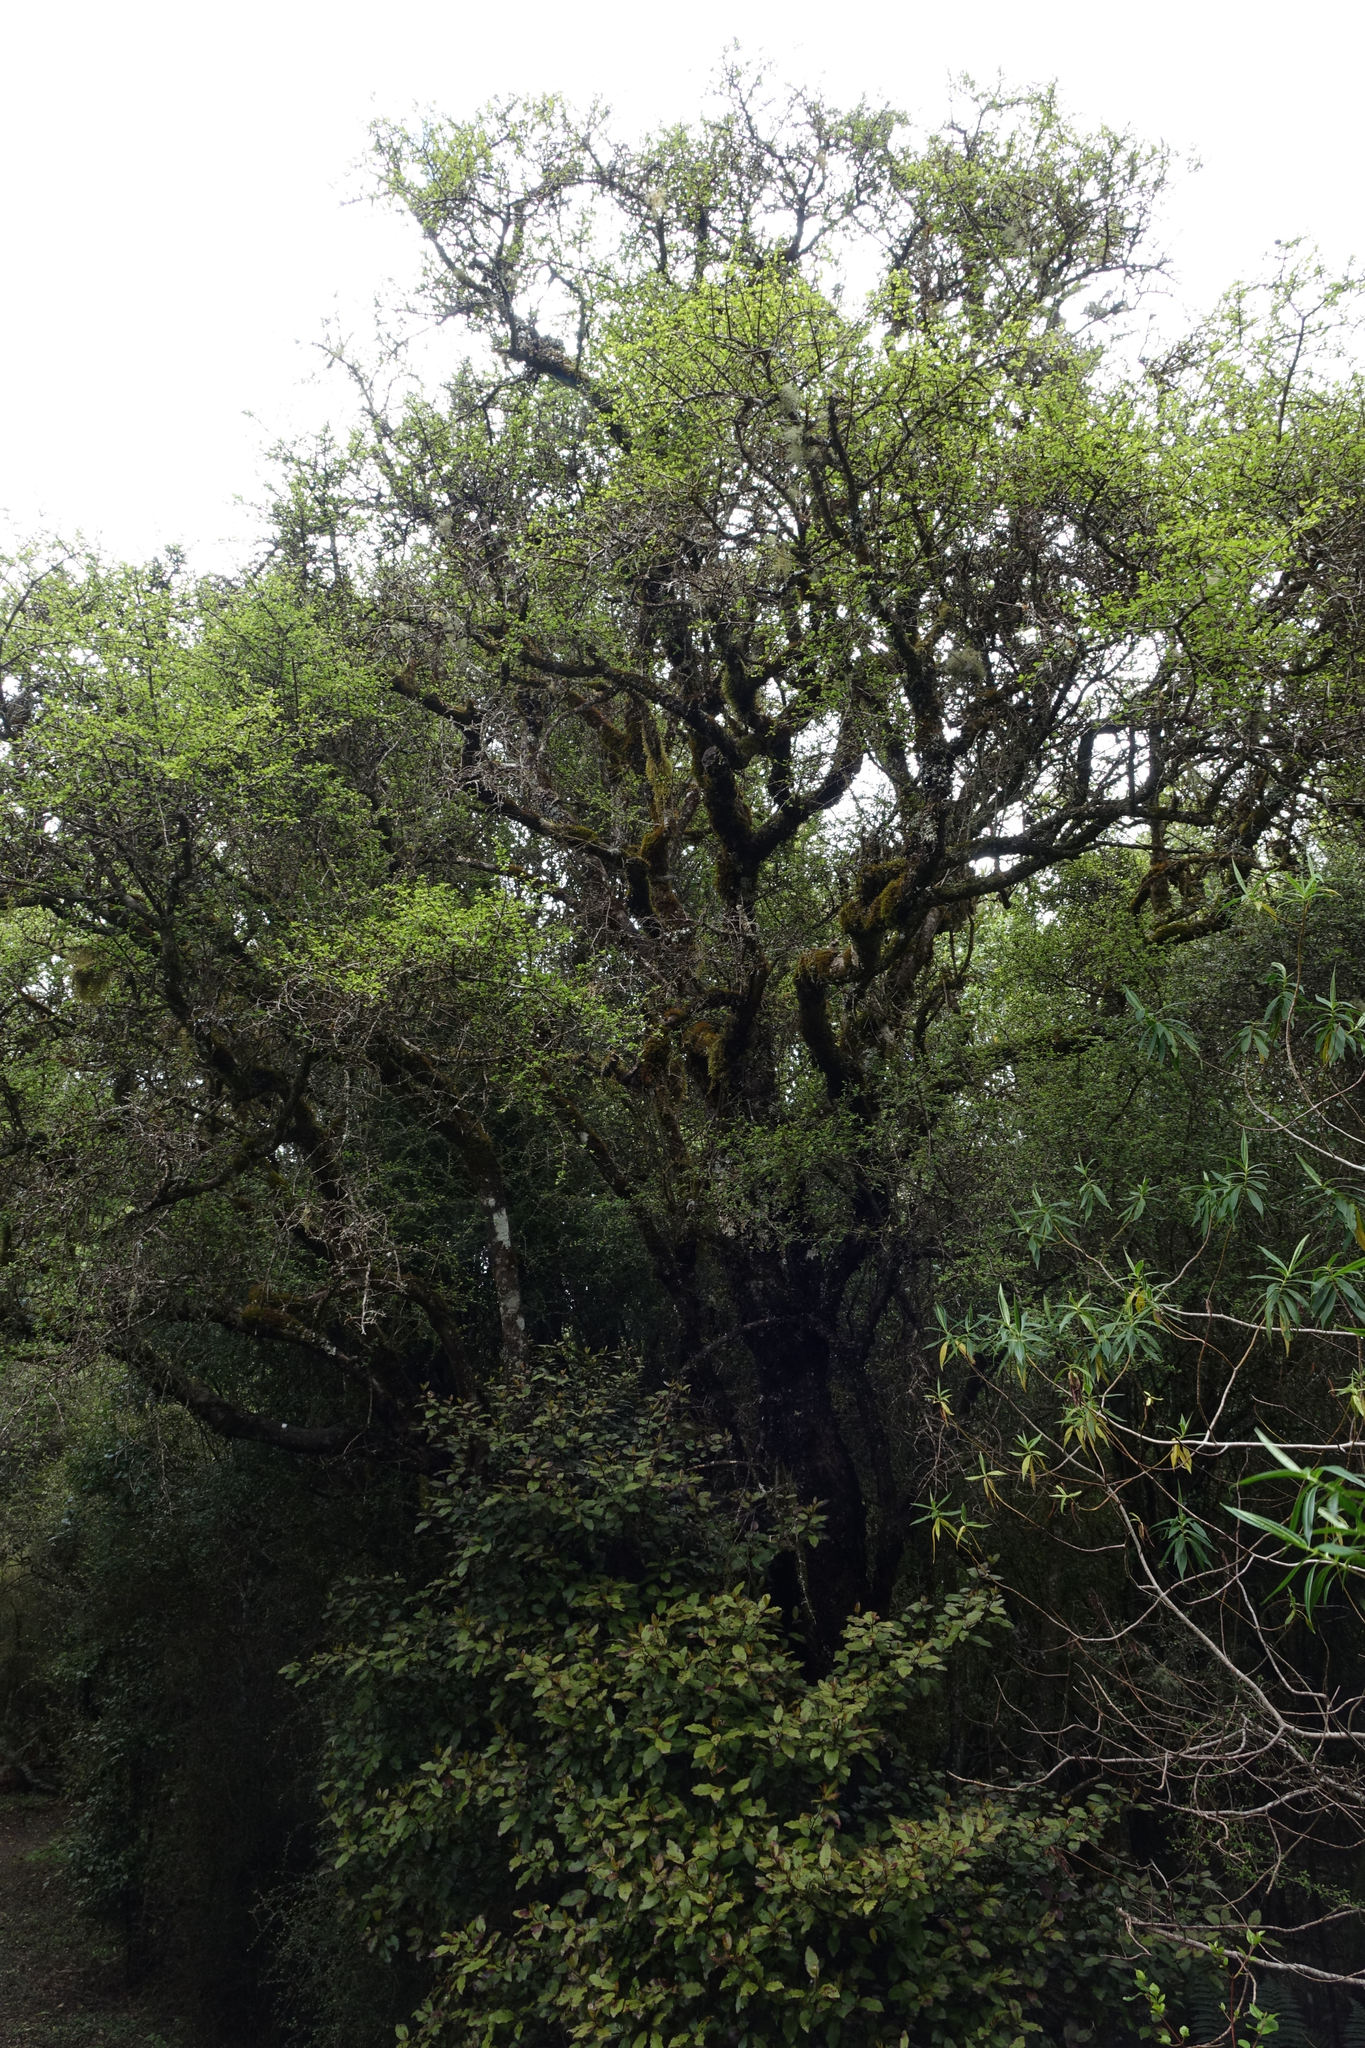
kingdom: Plantae
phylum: Tracheophyta
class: Magnoliopsida
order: Gentianales
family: Rubiaceae
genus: Coprosma
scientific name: Coprosma wallii
